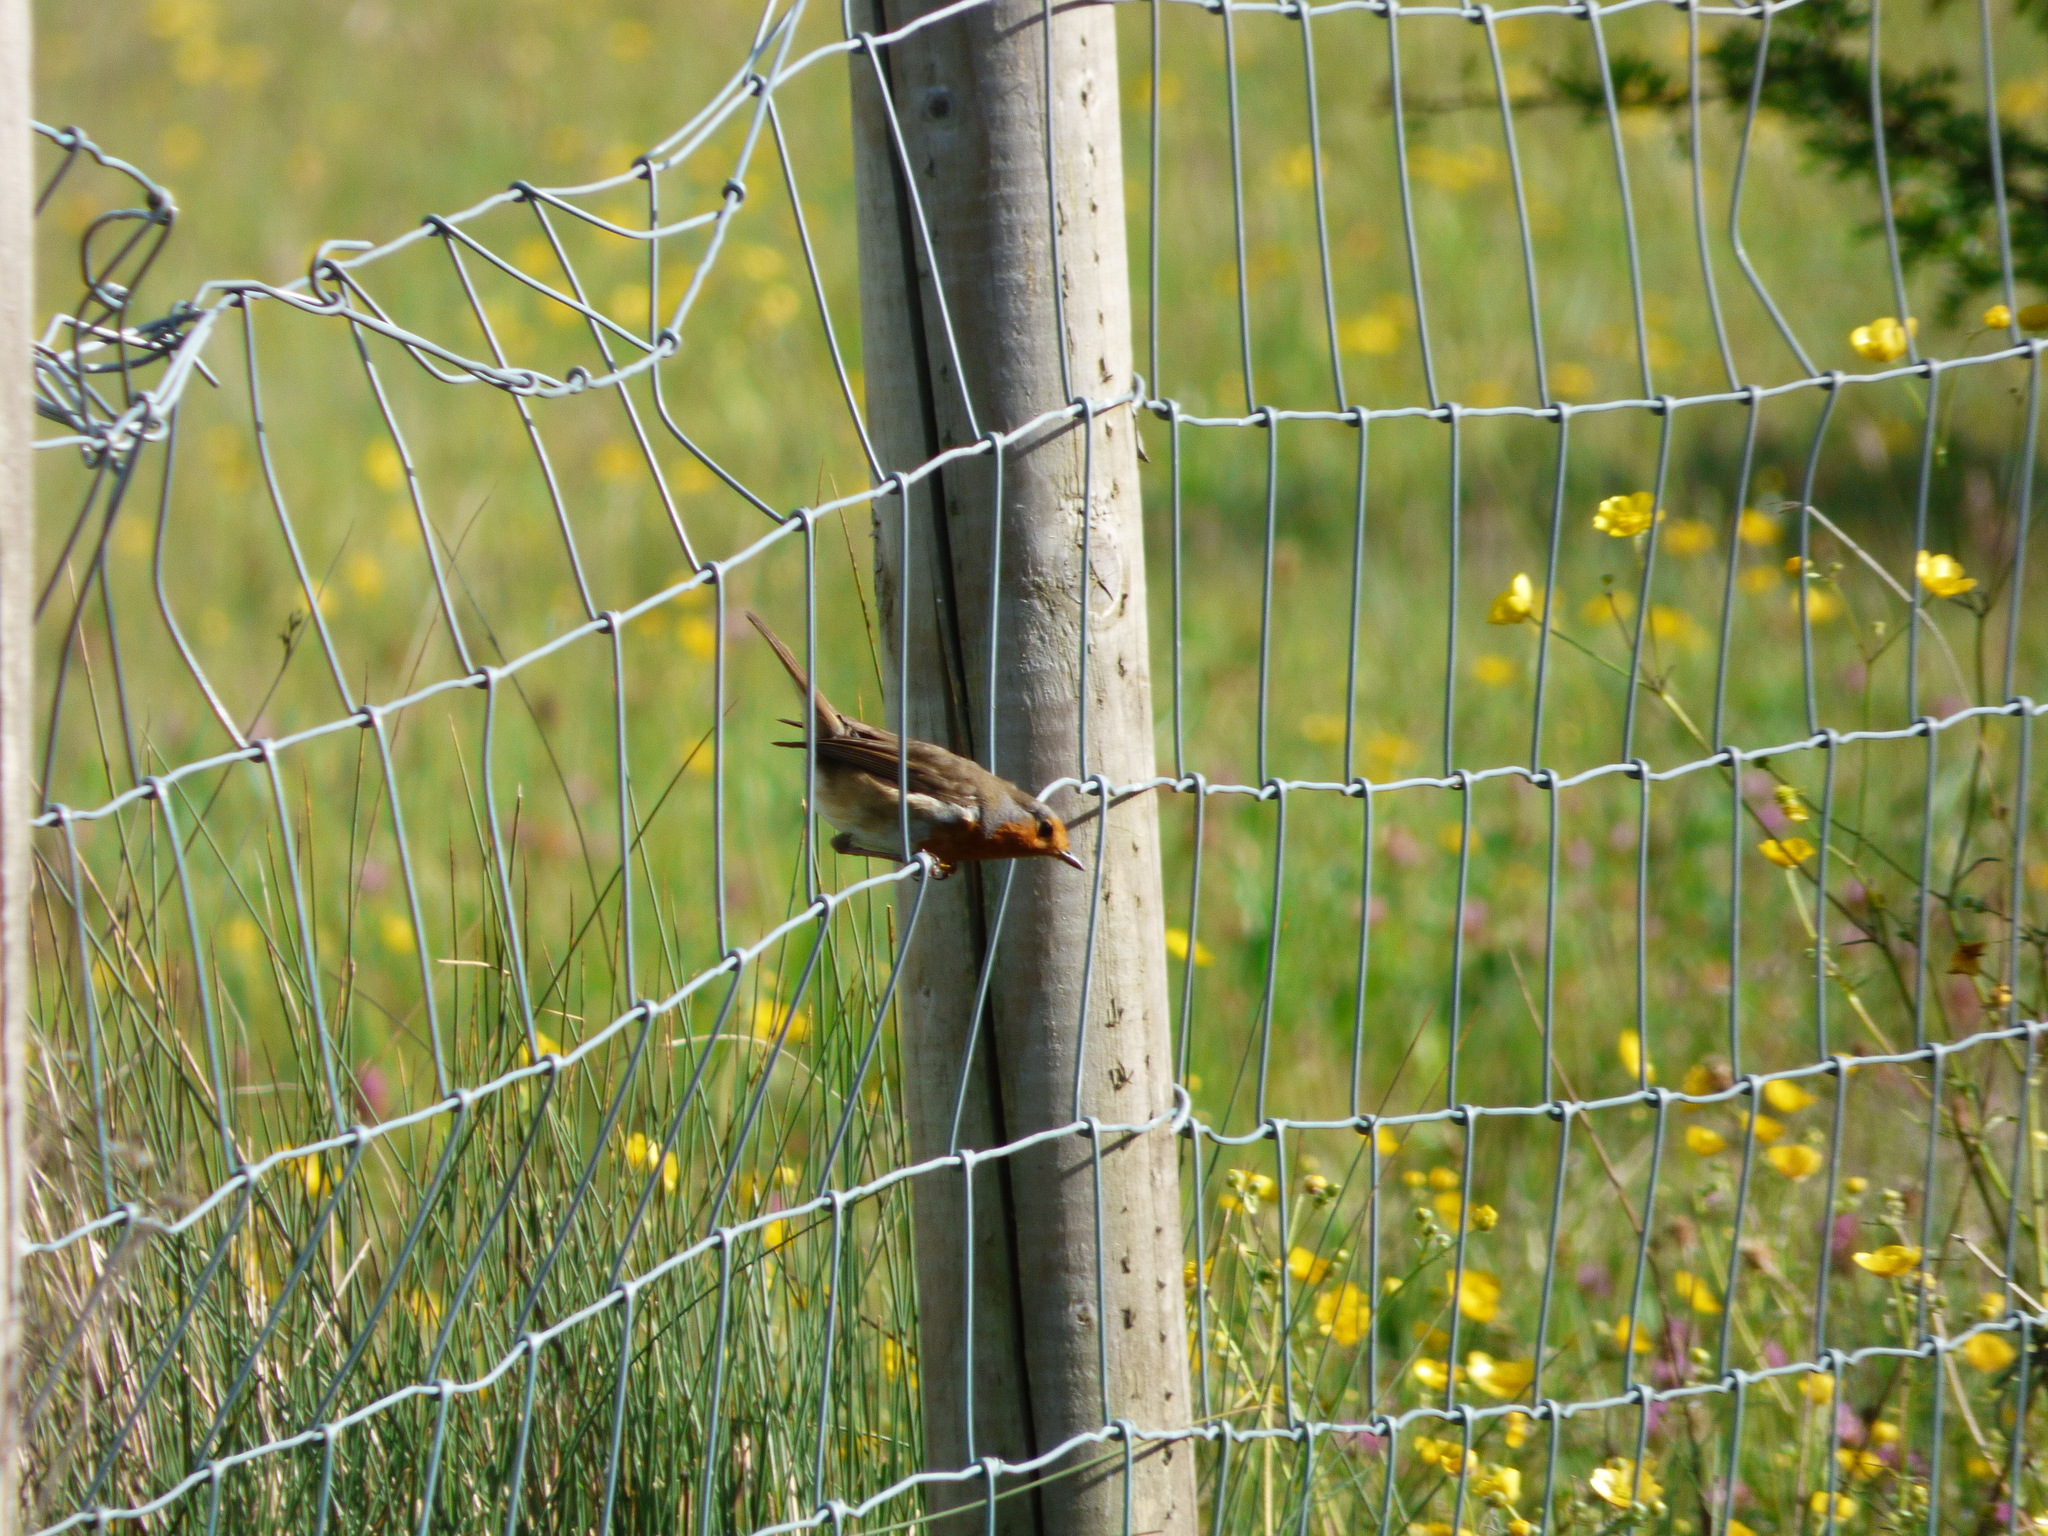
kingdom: Animalia
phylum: Chordata
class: Aves
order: Passeriformes
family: Muscicapidae
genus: Erithacus
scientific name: Erithacus rubecula
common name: European robin
